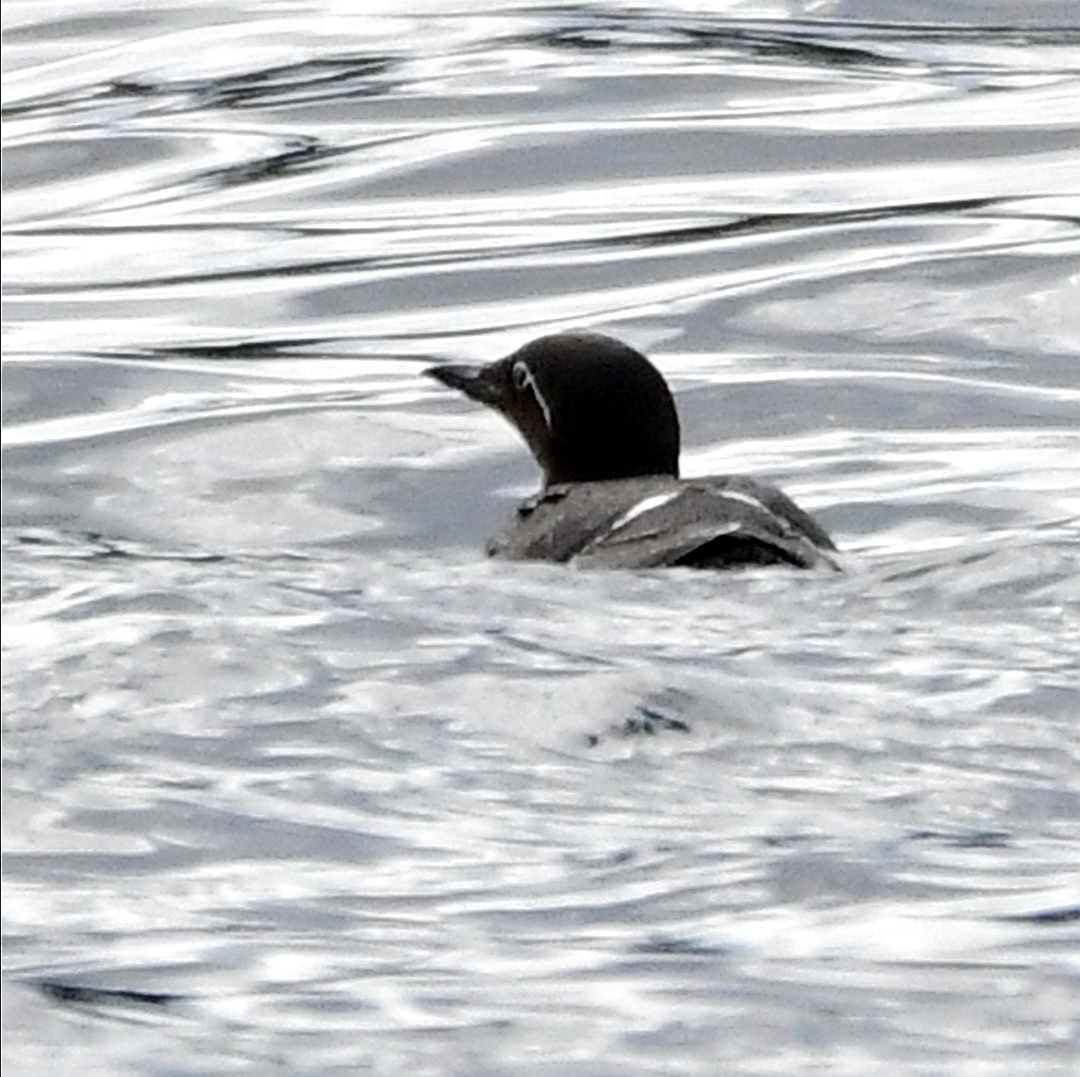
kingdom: Animalia
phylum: Chordata
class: Aves
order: Charadriiformes
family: Alcidae
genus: Uria
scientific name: Uria aalge
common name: Common murre
